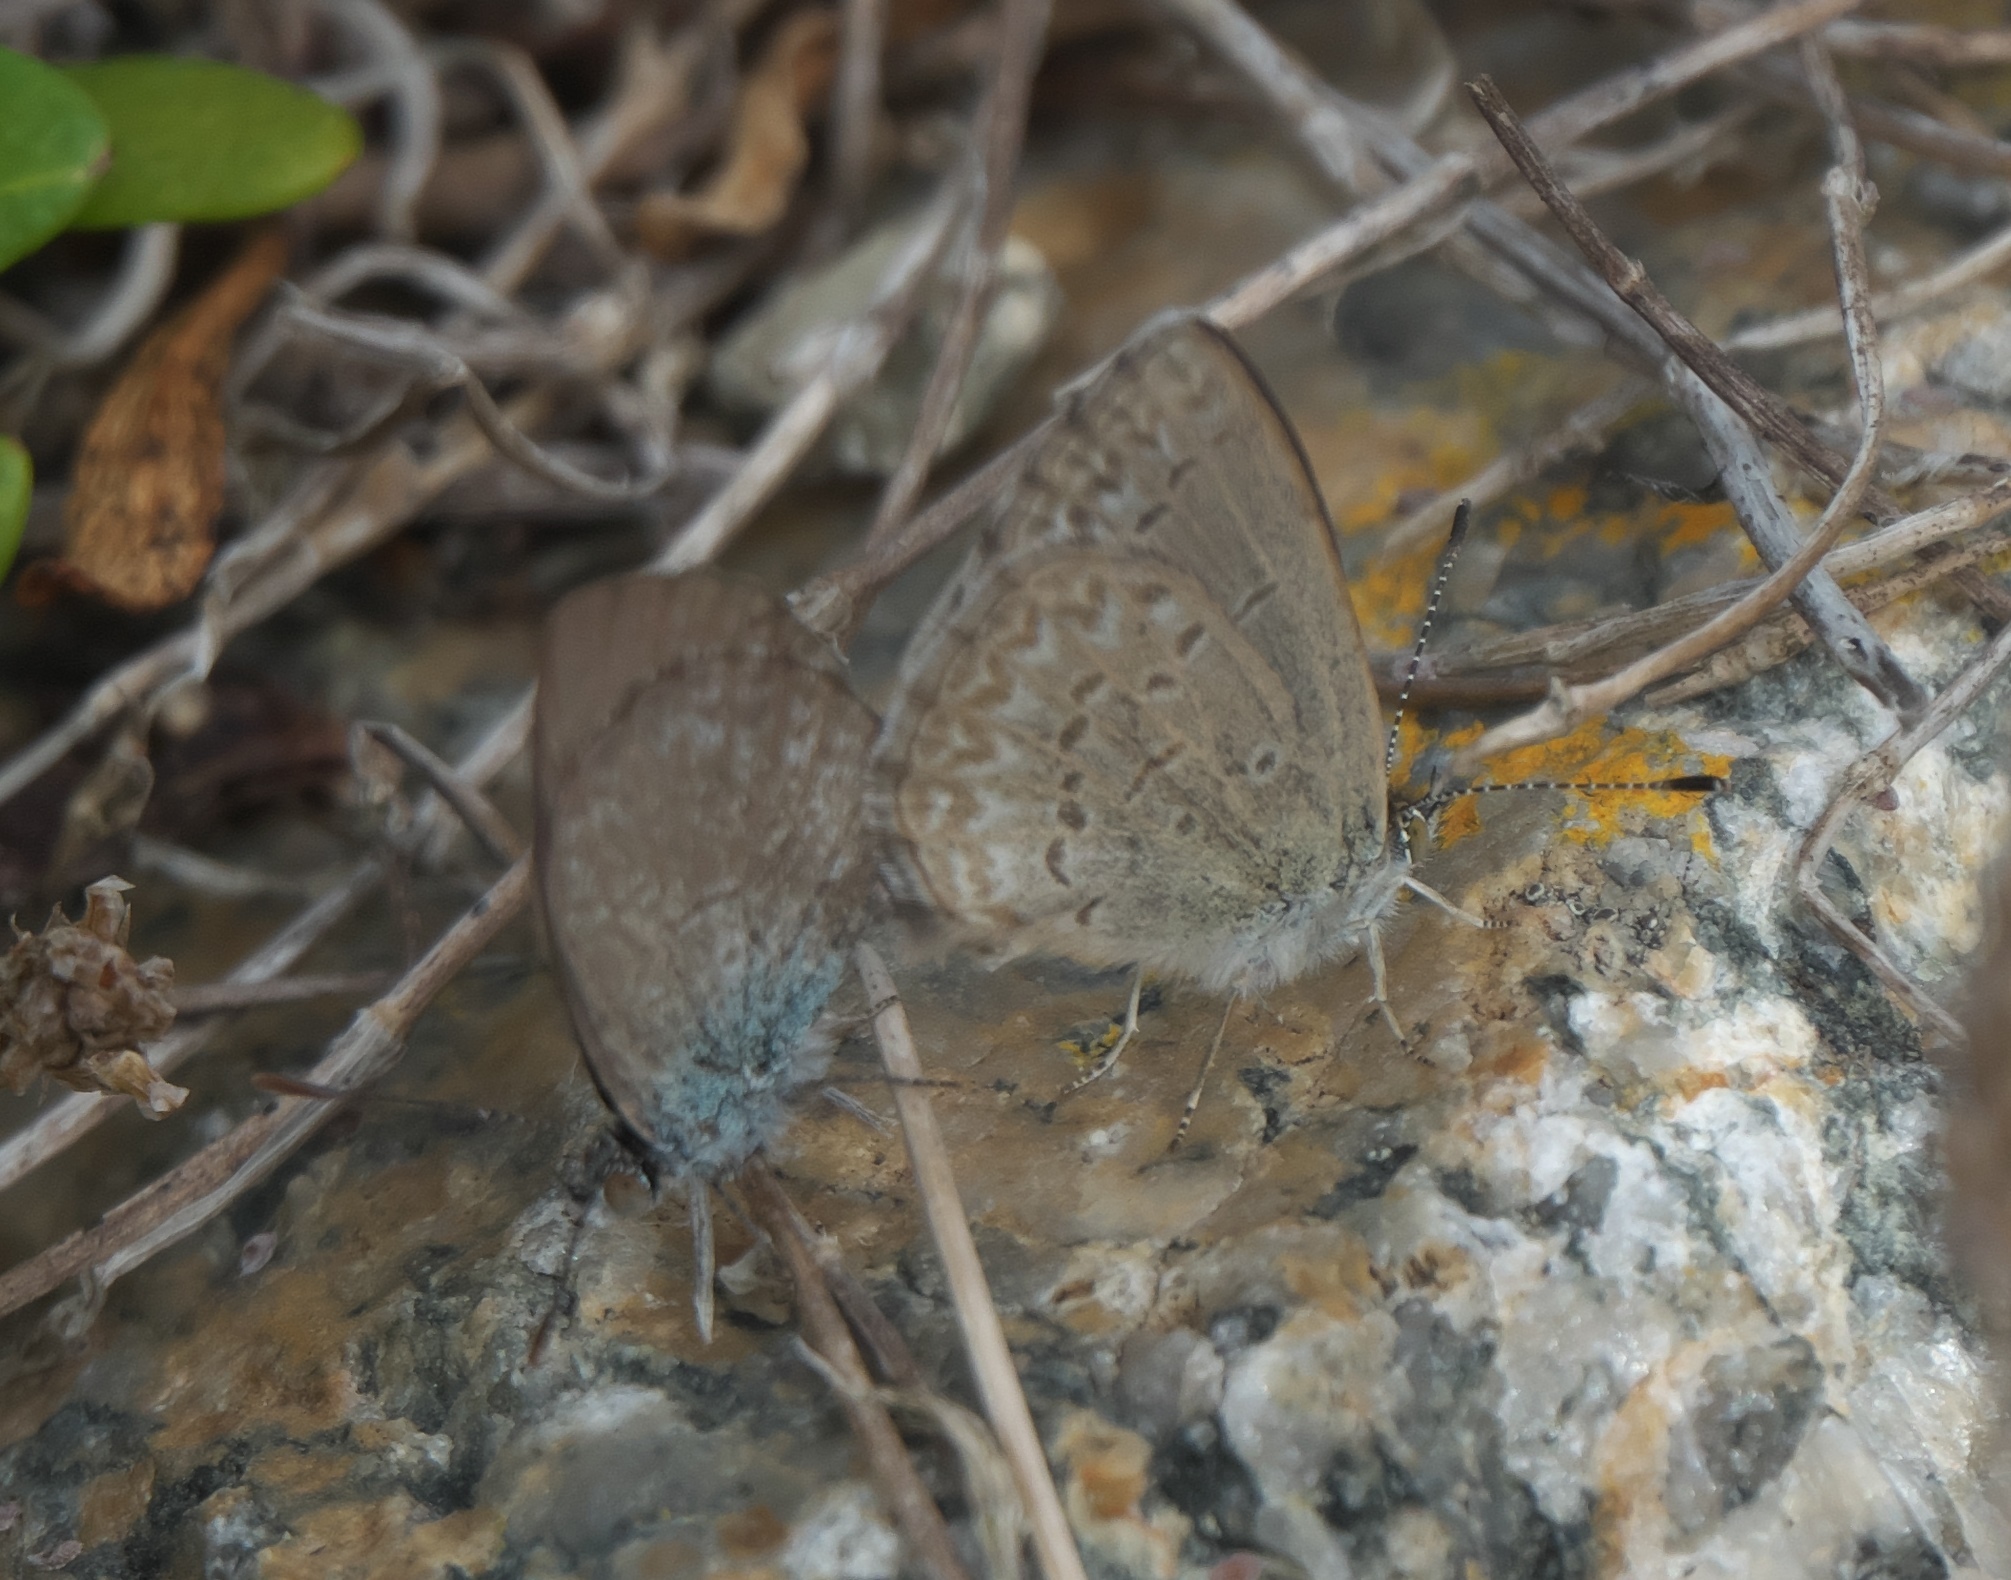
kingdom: Animalia
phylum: Arthropoda
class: Insecta
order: Lepidoptera
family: Lycaenidae
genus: Zizina
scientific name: Zizina otis
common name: Lesser grass blue
